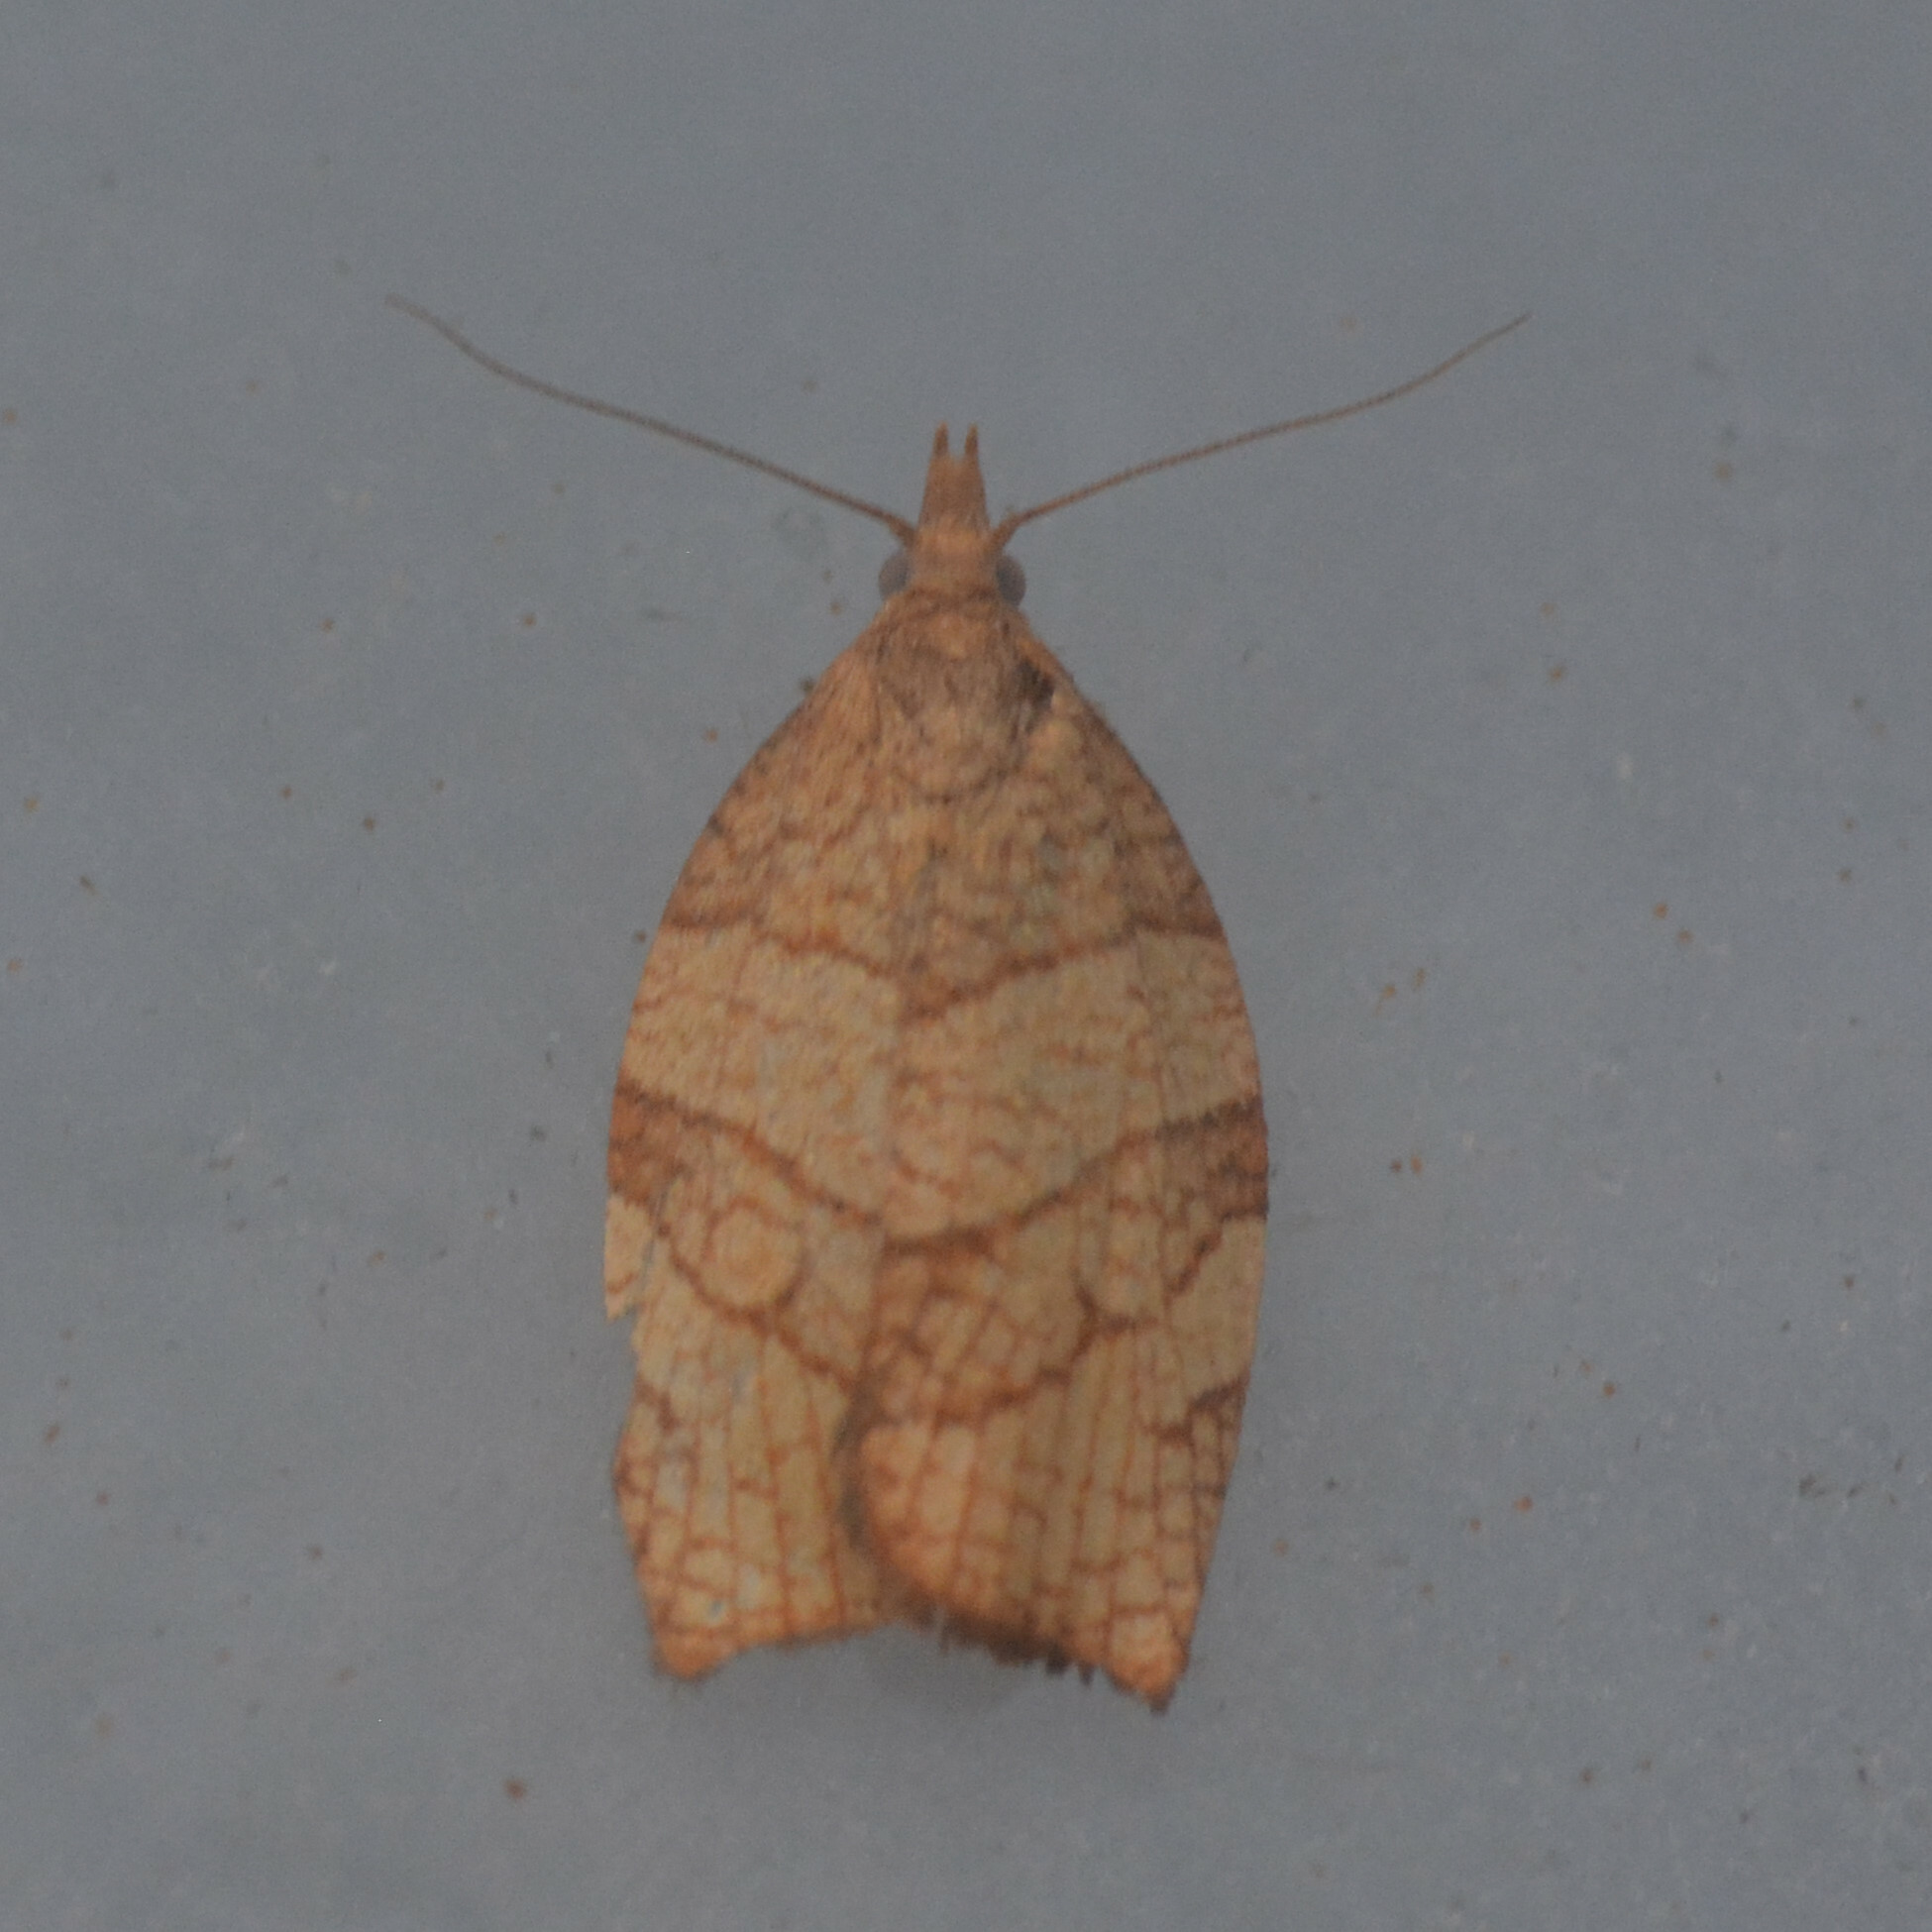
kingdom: Animalia
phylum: Arthropoda
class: Insecta
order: Lepidoptera
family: Tortricidae
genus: Pandemis
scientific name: Pandemis corylana
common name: Chequered fruit-tree tortrix
